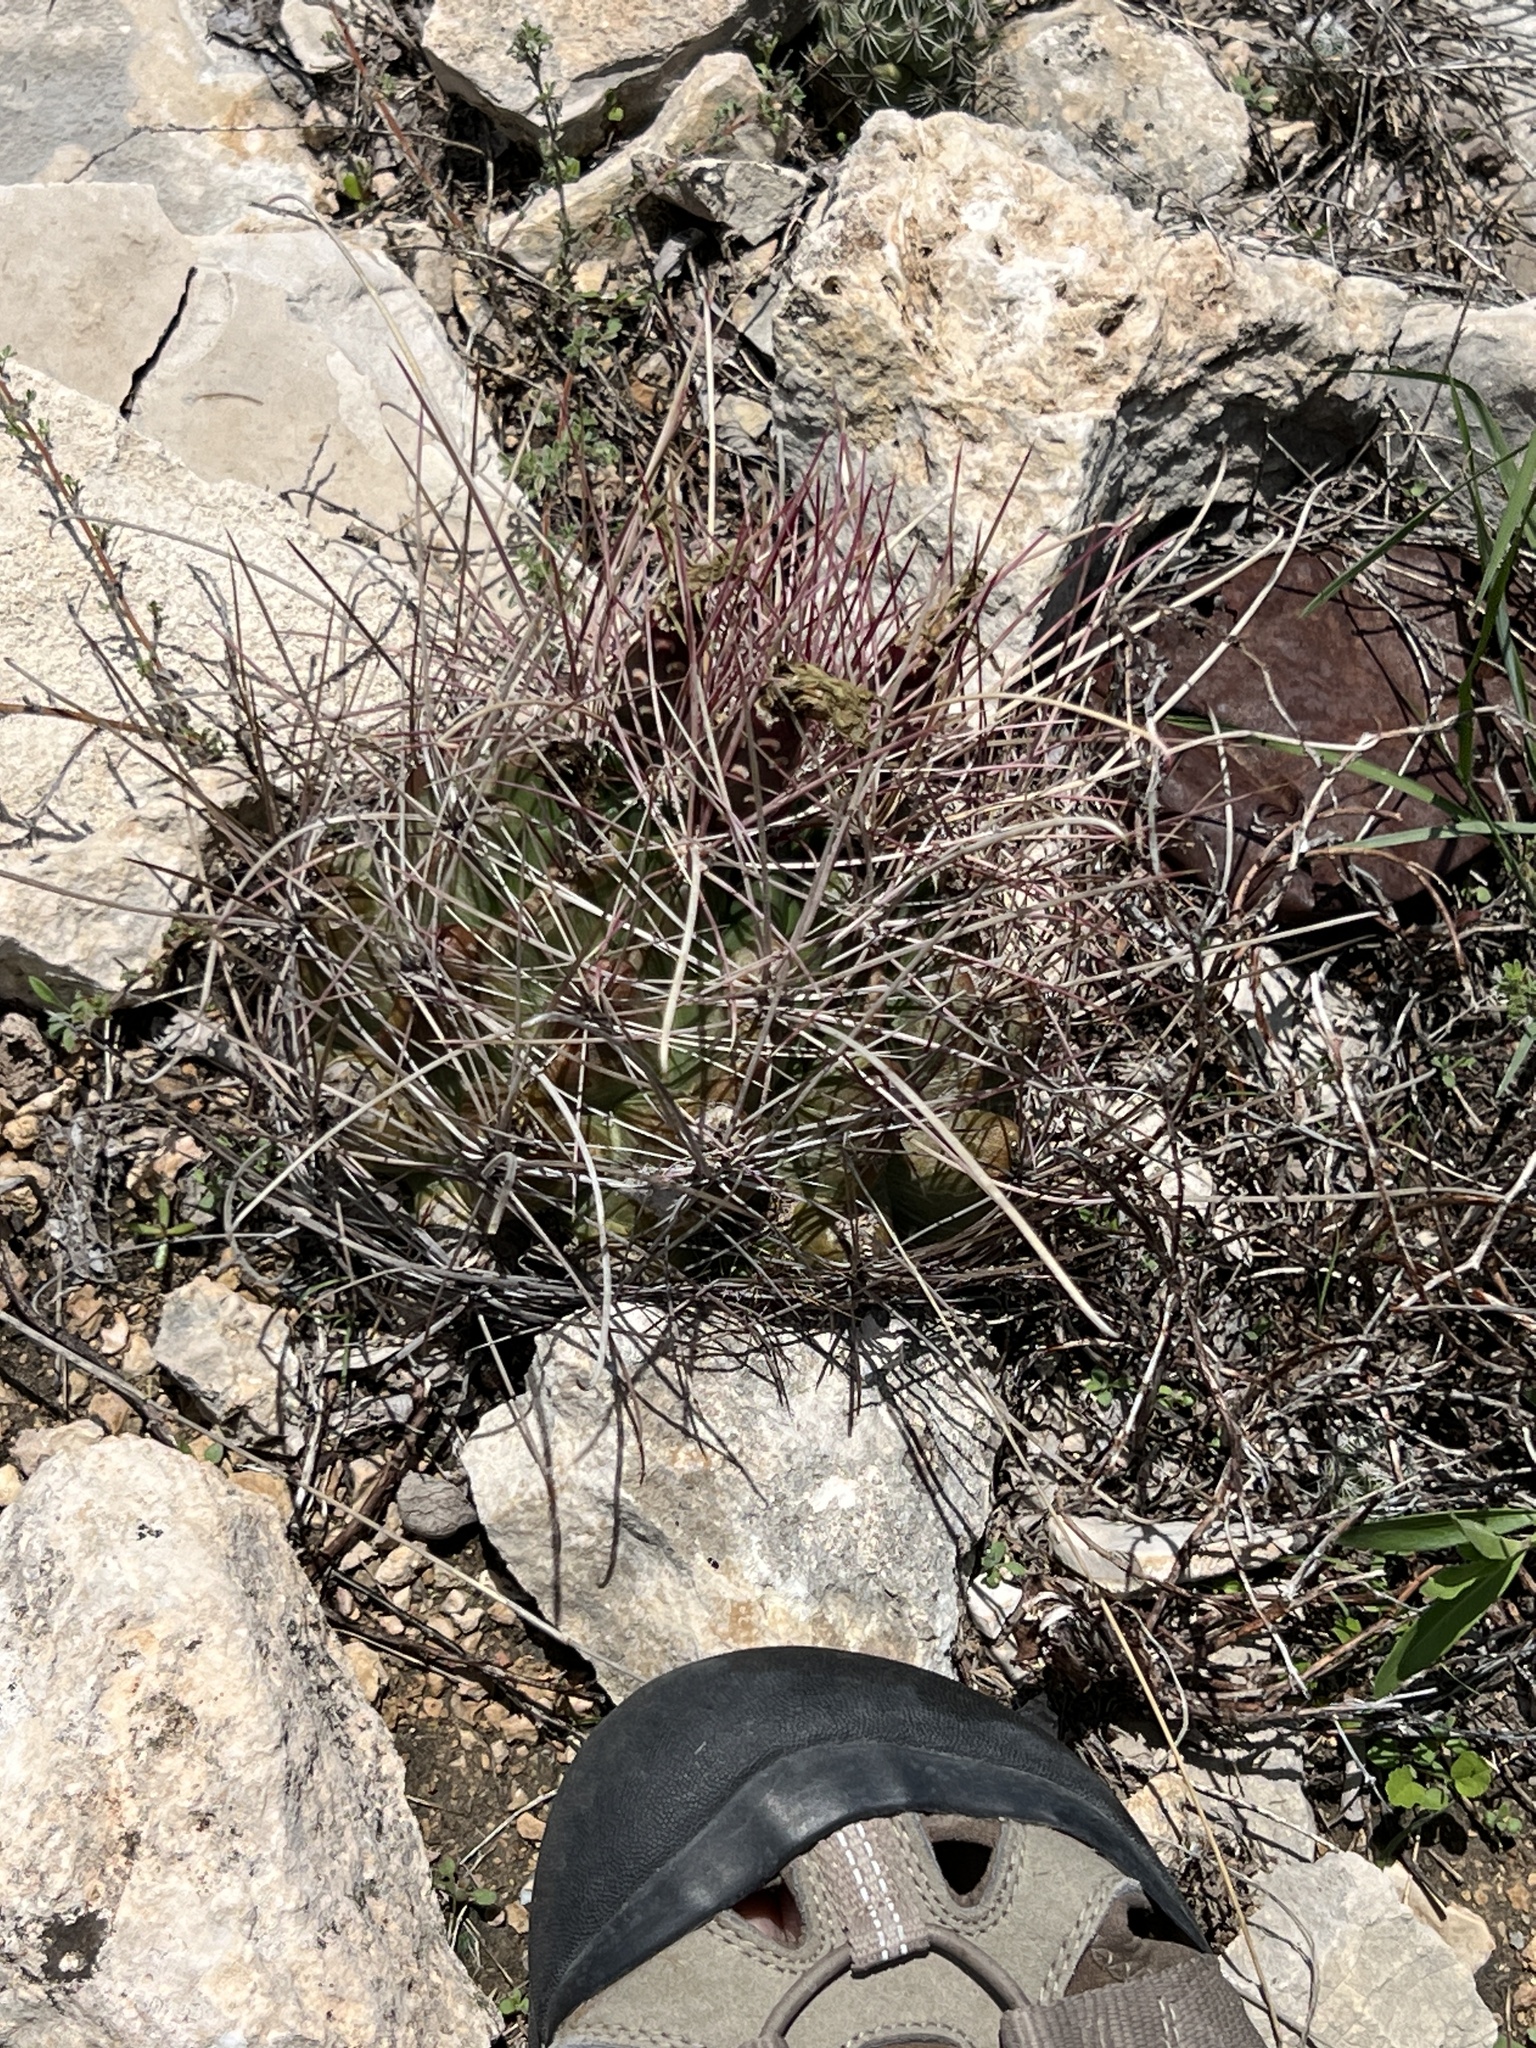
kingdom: Plantae
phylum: Tracheophyta
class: Magnoliopsida
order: Caryophyllales
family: Cactaceae
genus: Bisnaga
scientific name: Bisnaga hamatacantha
